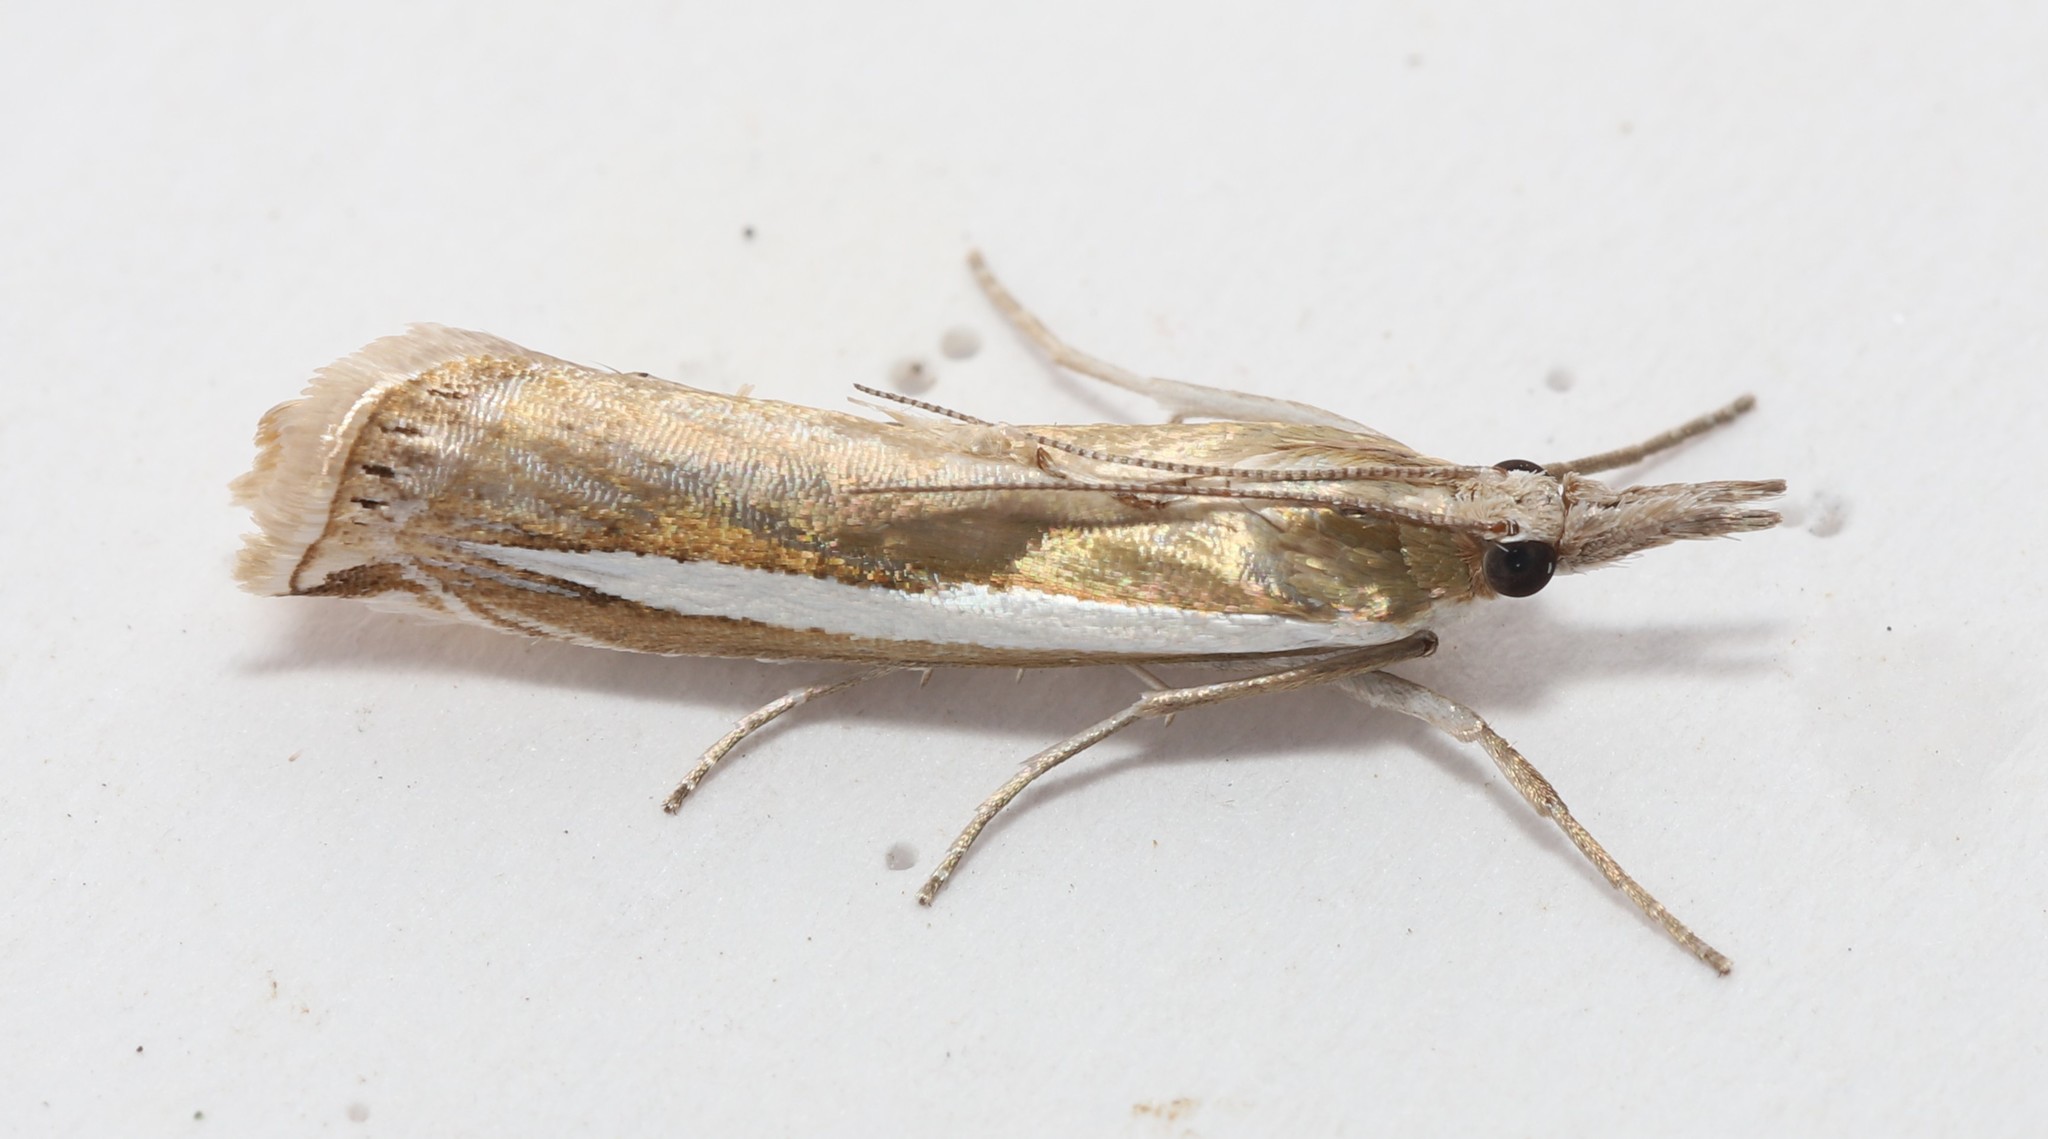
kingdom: Animalia
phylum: Arthropoda
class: Insecta
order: Lepidoptera
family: Crambidae
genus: Crambus
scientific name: Crambus praefectellus
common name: Common grass-veneer
